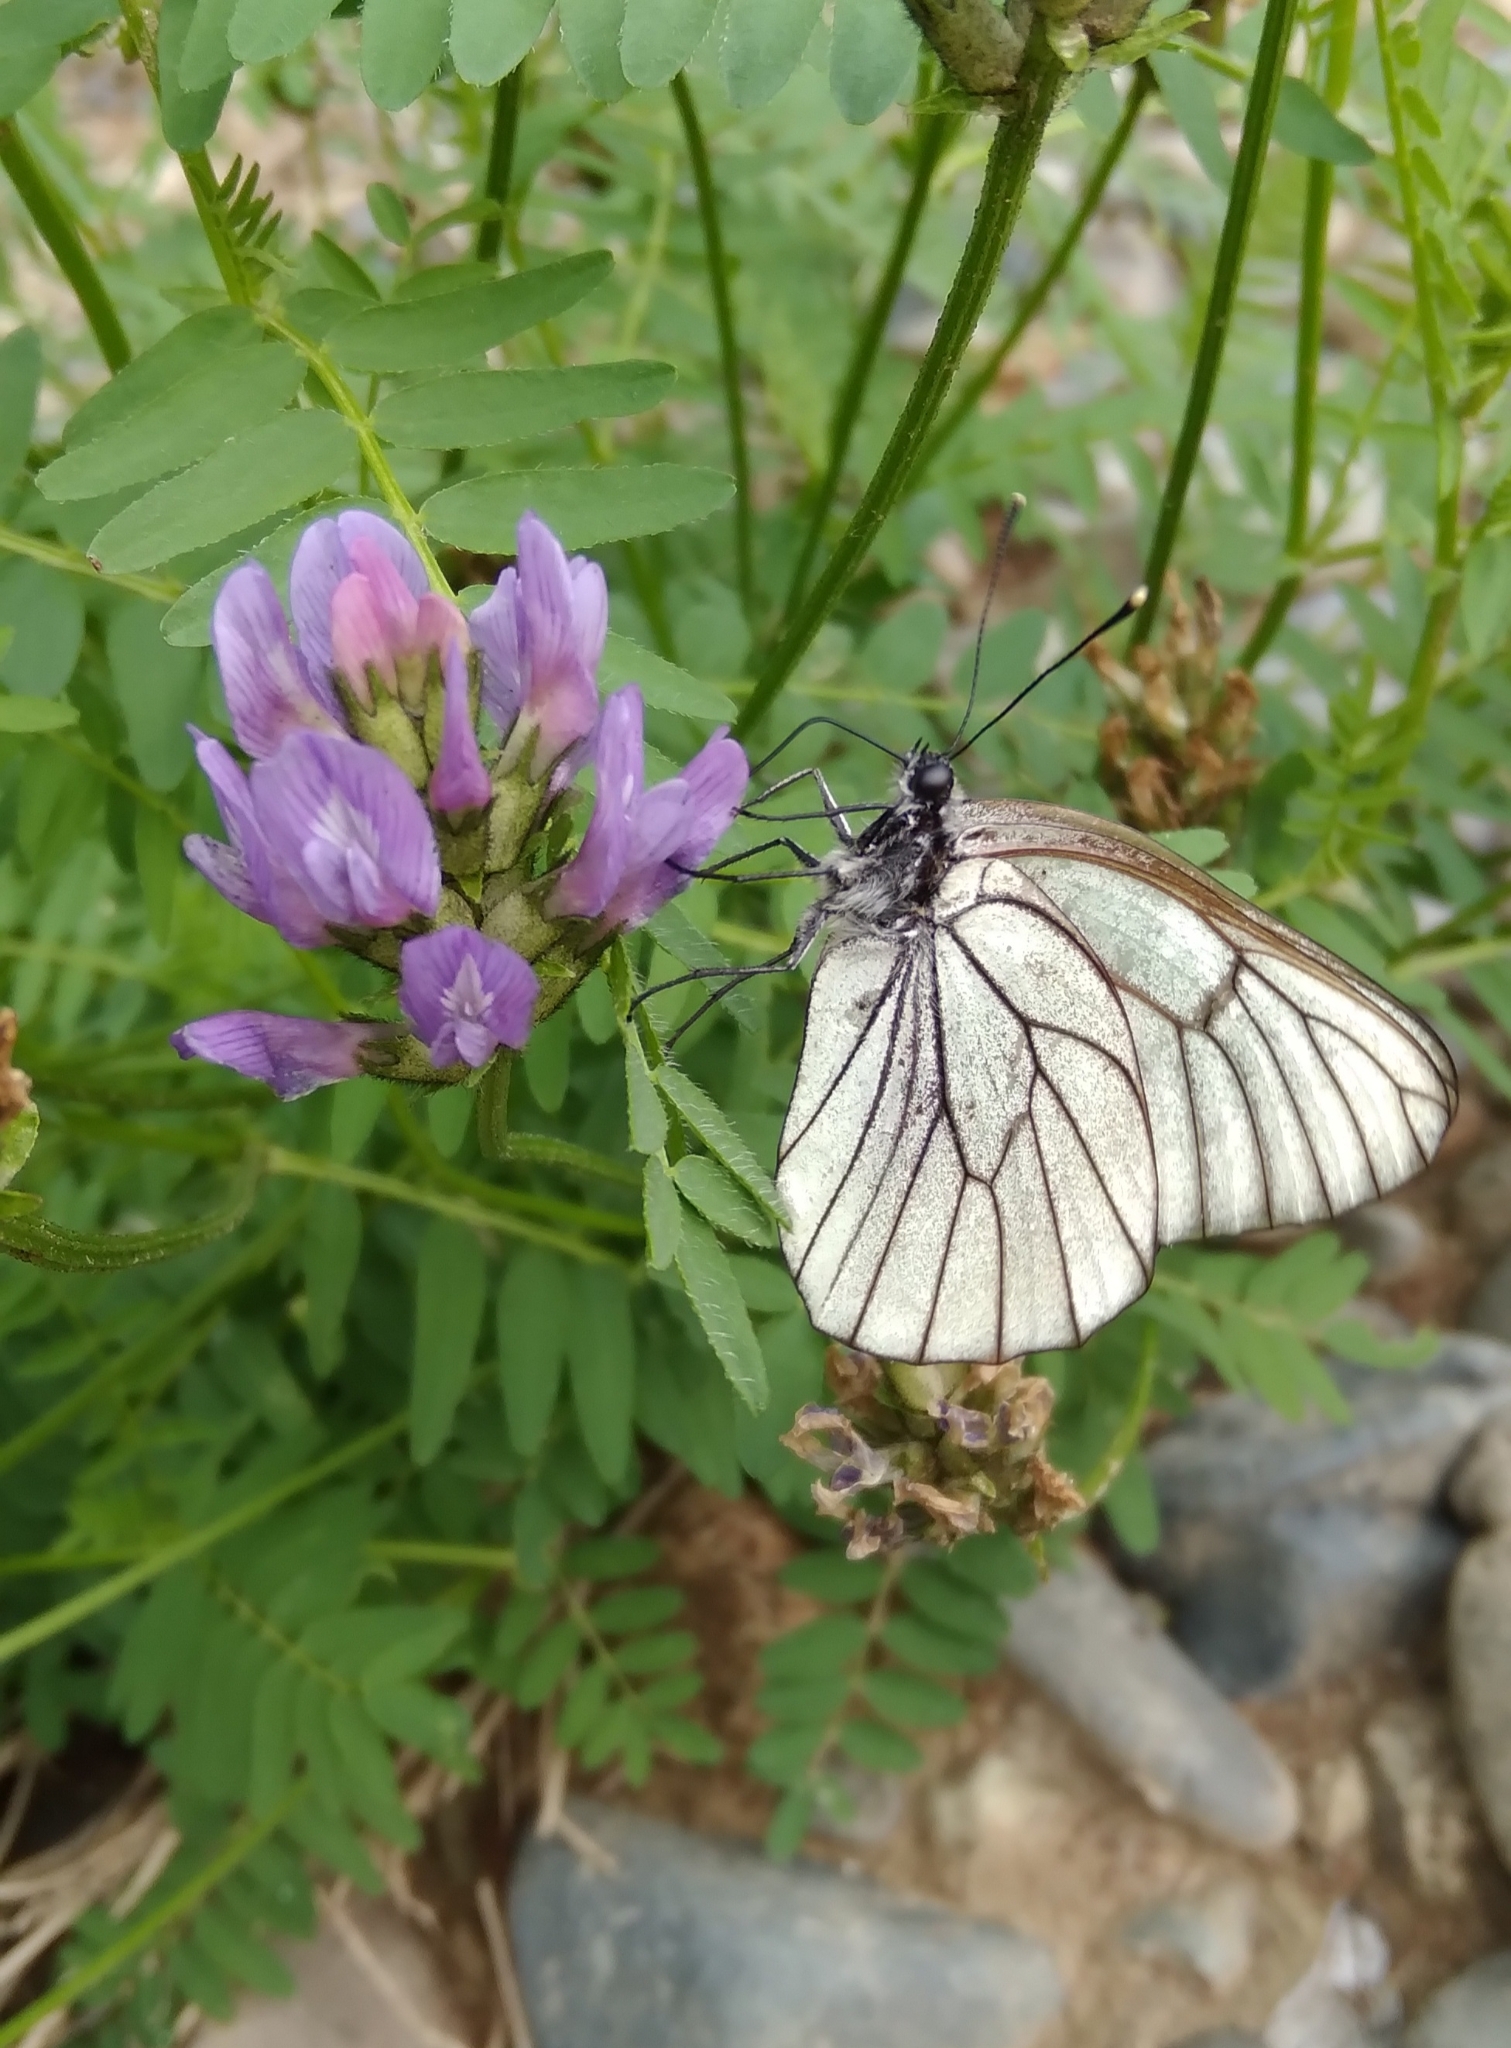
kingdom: Animalia
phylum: Arthropoda
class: Insecta
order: Lepidoptera
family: Pieridae
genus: Aporia
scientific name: Aporia crataegi
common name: Black-veined white
